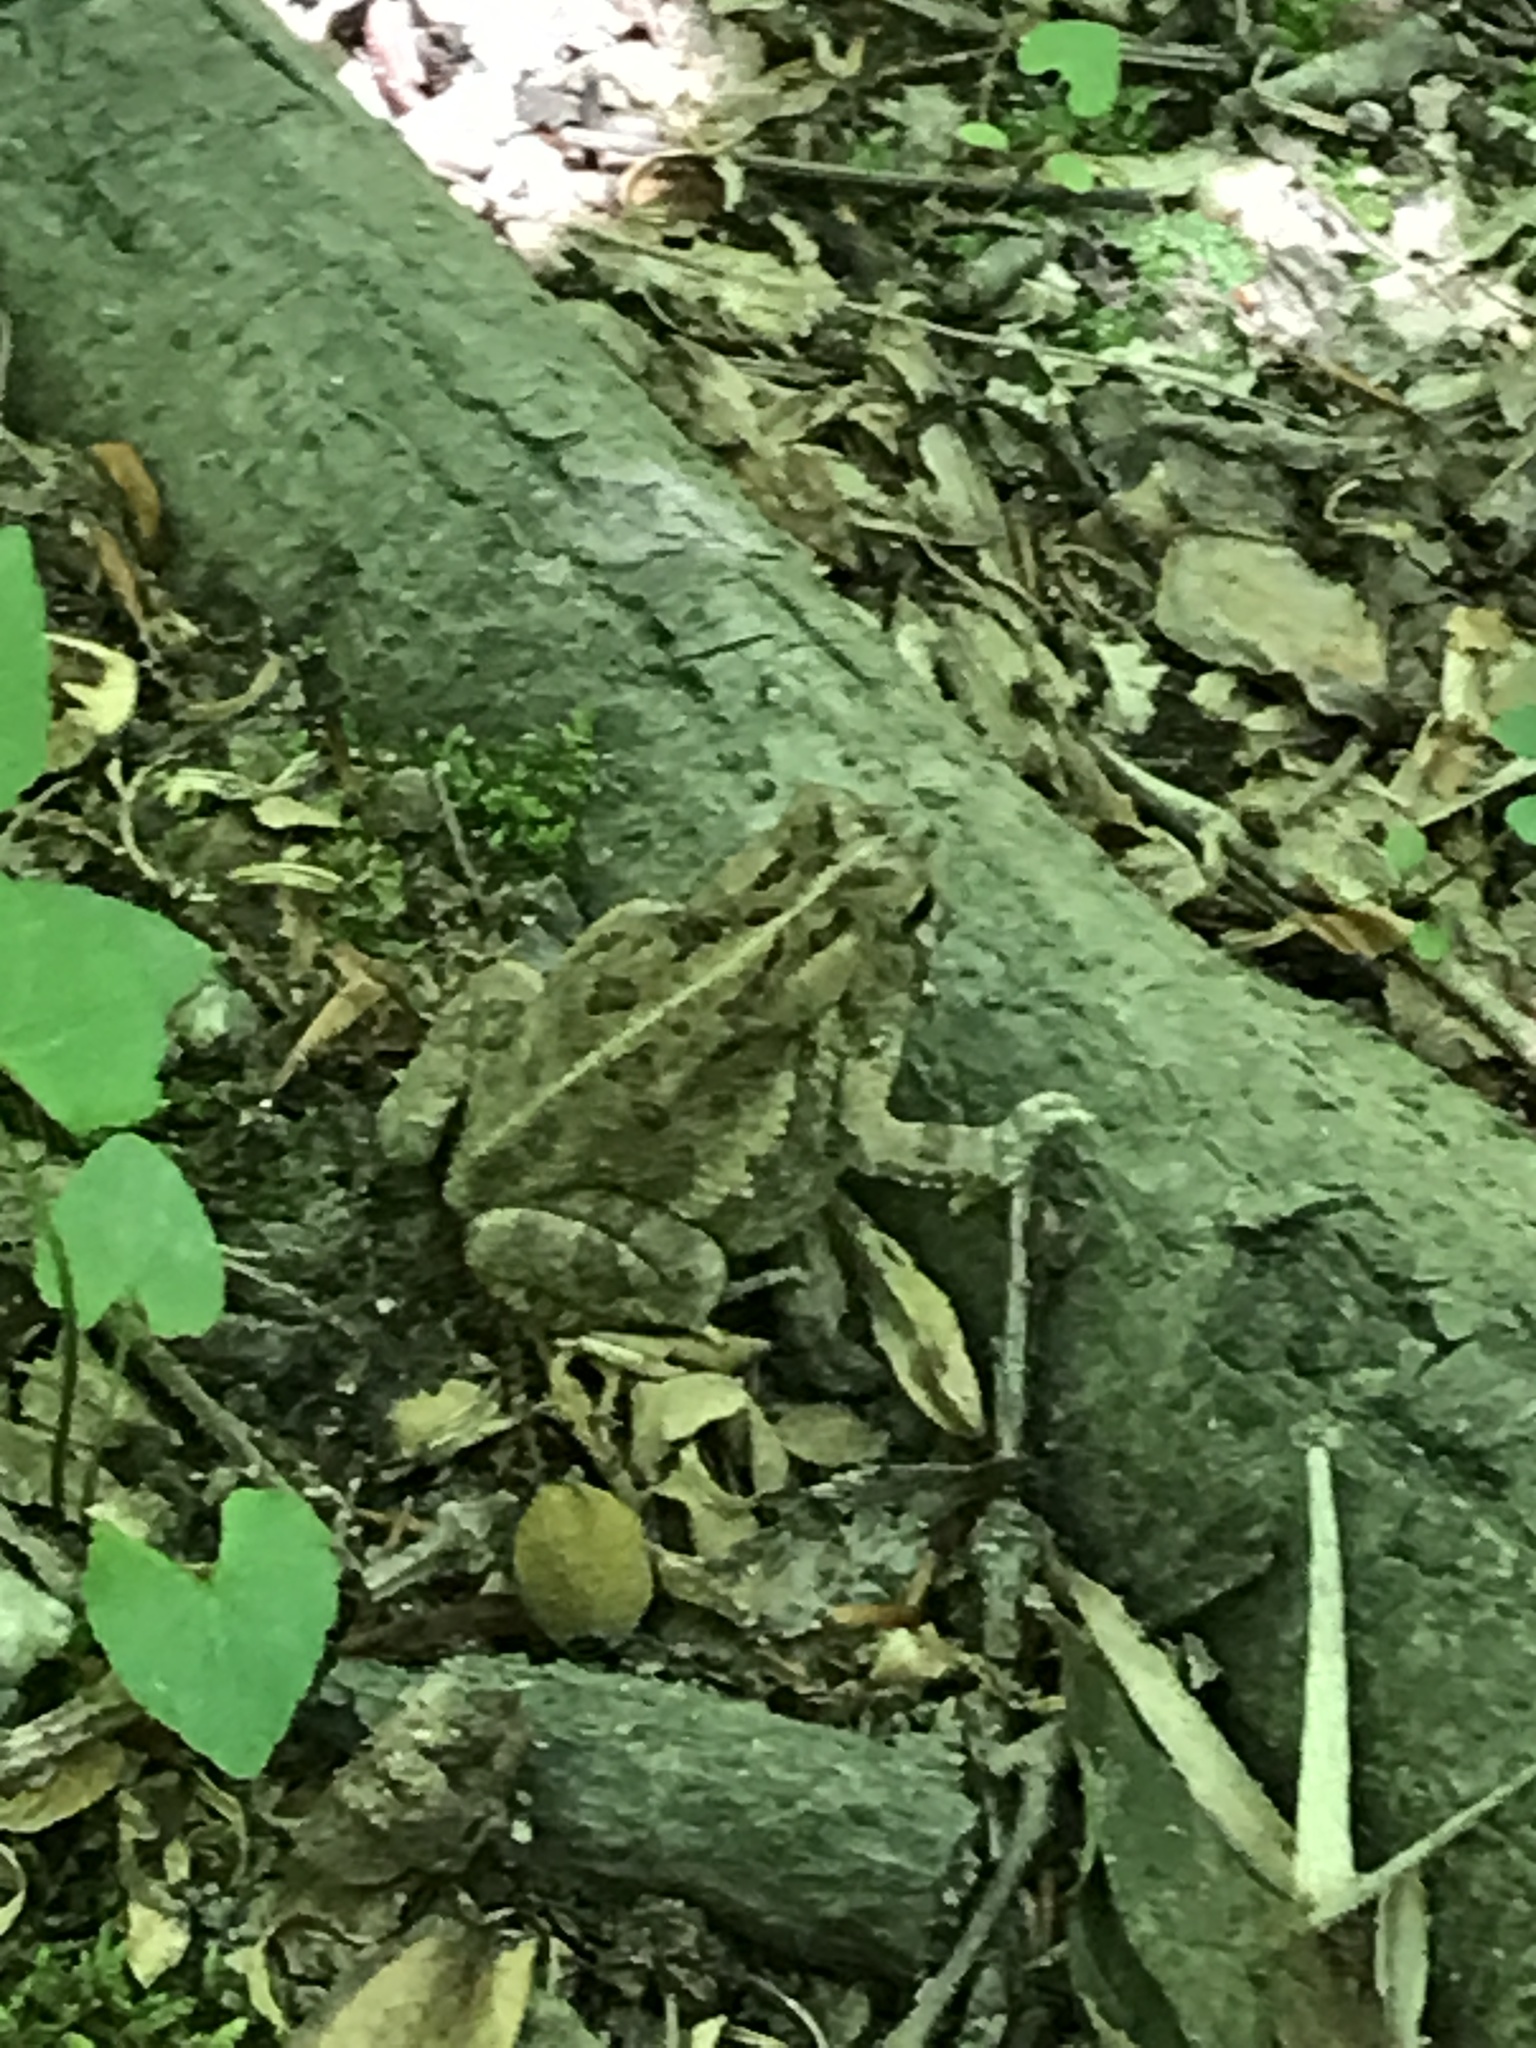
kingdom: Animalia
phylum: Chordata
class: Amphibia
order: Anura
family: Bufonidae
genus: Anaxyrus
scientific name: Anaxyrus fowleri
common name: Fowler's toad
